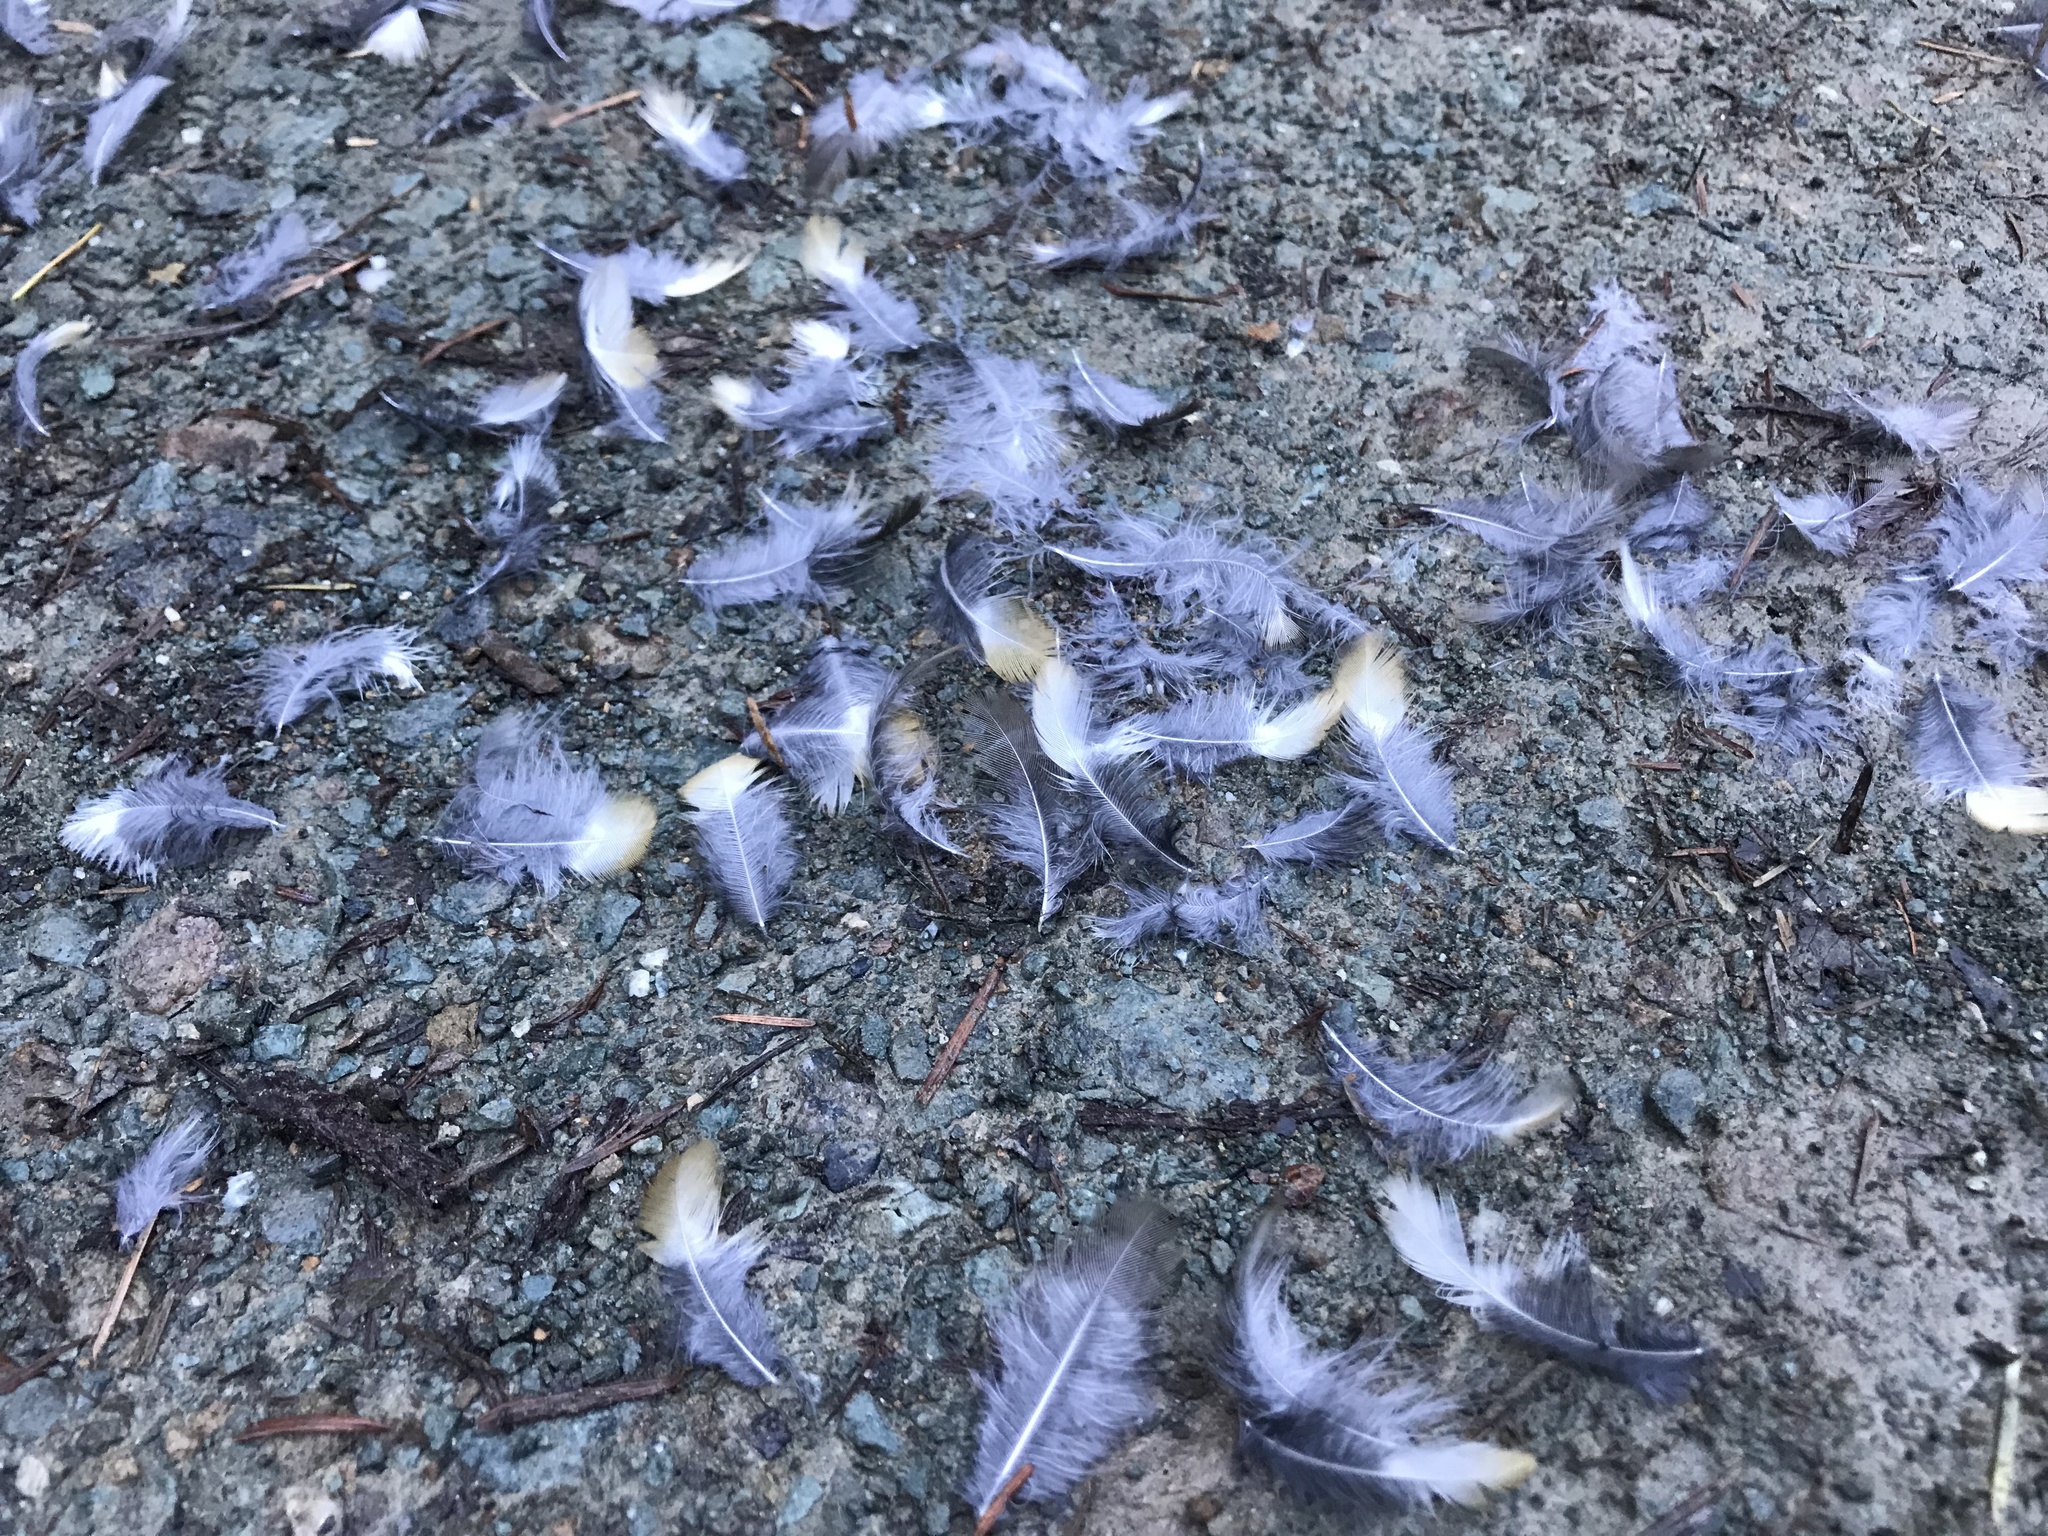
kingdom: Animalia
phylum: Chordata
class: Aves
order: Passeriformes
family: Turdidae
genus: Ixoreus
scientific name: Ixoreus naevius
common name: Varied thrush
